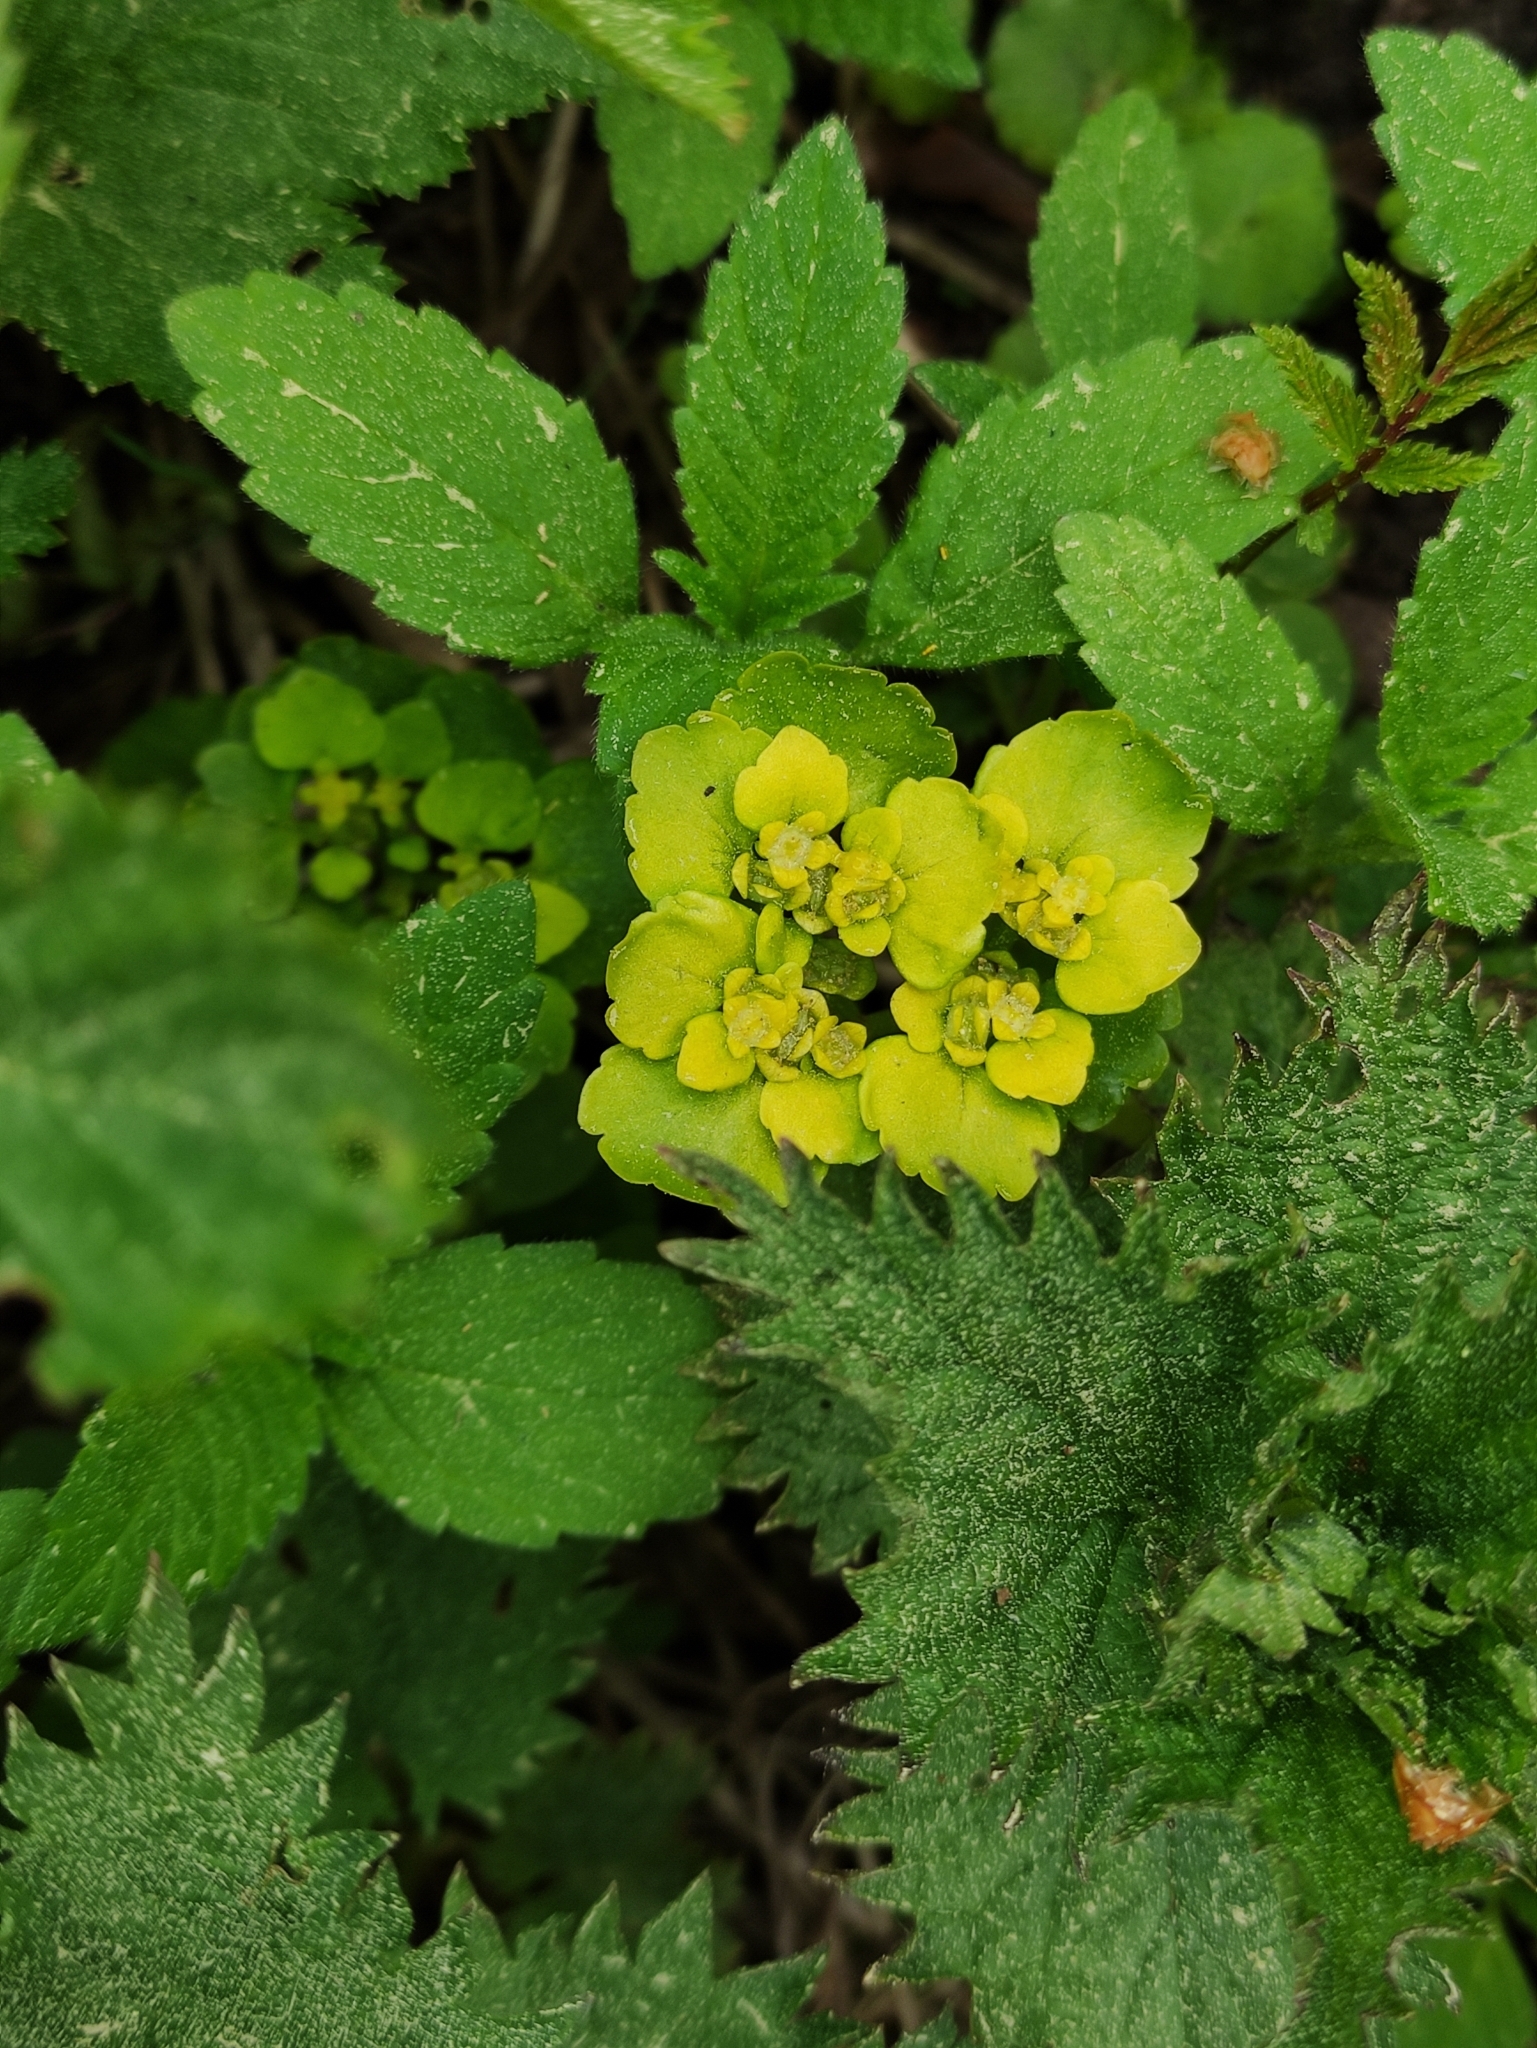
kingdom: Plantae
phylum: Tracheophyta
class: Magnoliopsida
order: Saxifragales
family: Saxifragaceae
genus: Chrysosplenium
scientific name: Chrysosplenium alternifolium
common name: Alternate-leaved golden-saxifrage
